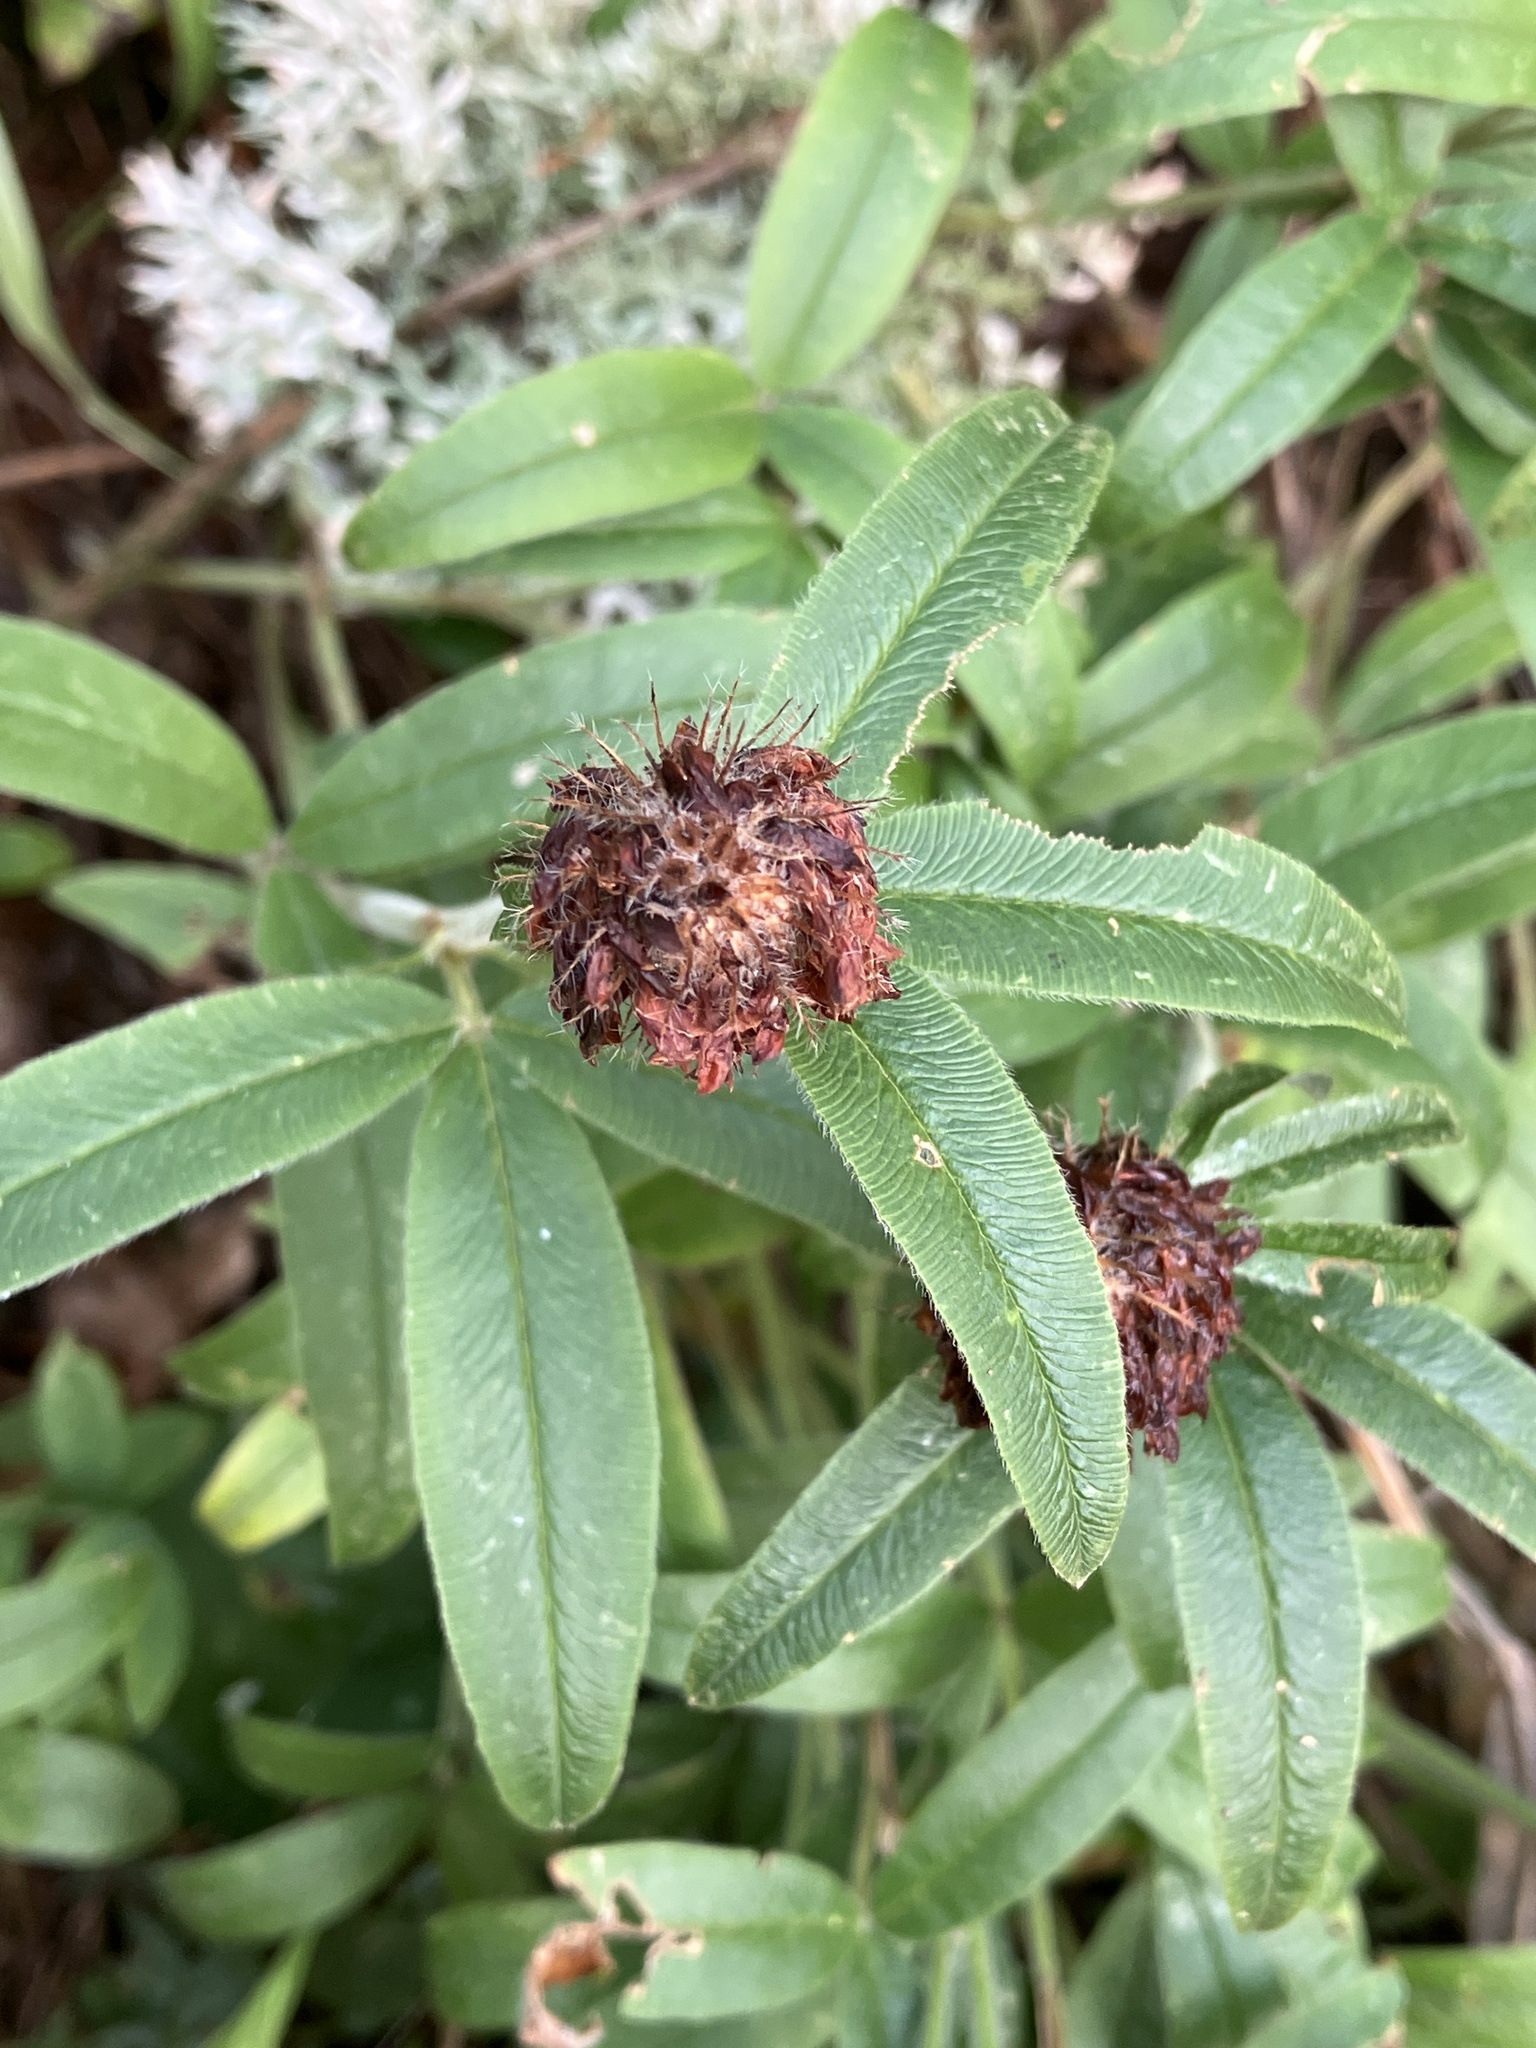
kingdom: Plantae
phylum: Tracheophyta
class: Magnoliopsida
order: Fabales
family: Fabaceae
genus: Trifolium
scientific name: Trifolium alpestre
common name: Owl-head clover
